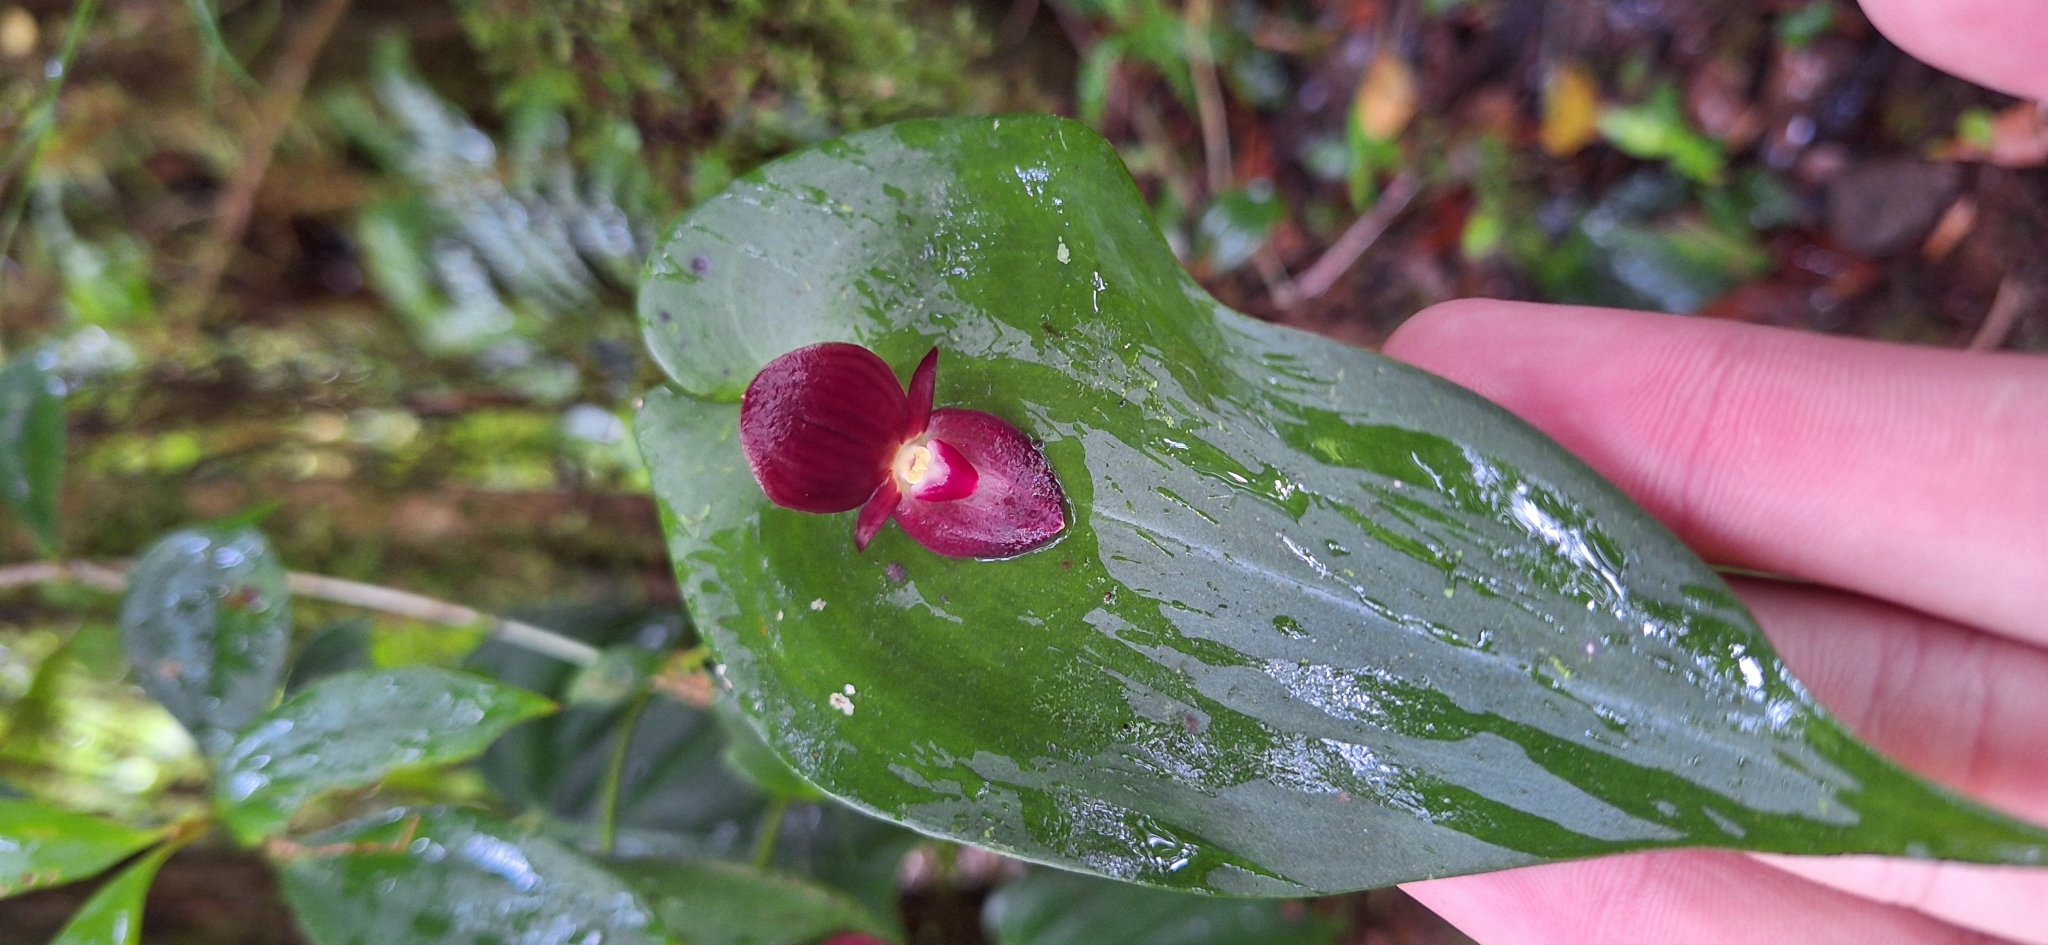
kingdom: Plantae
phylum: Tracheophyta
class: Liliopsida
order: Asparagales
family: Orchidaceae
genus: Pleurothallis
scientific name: Pleurothallis gonzaleziorum
